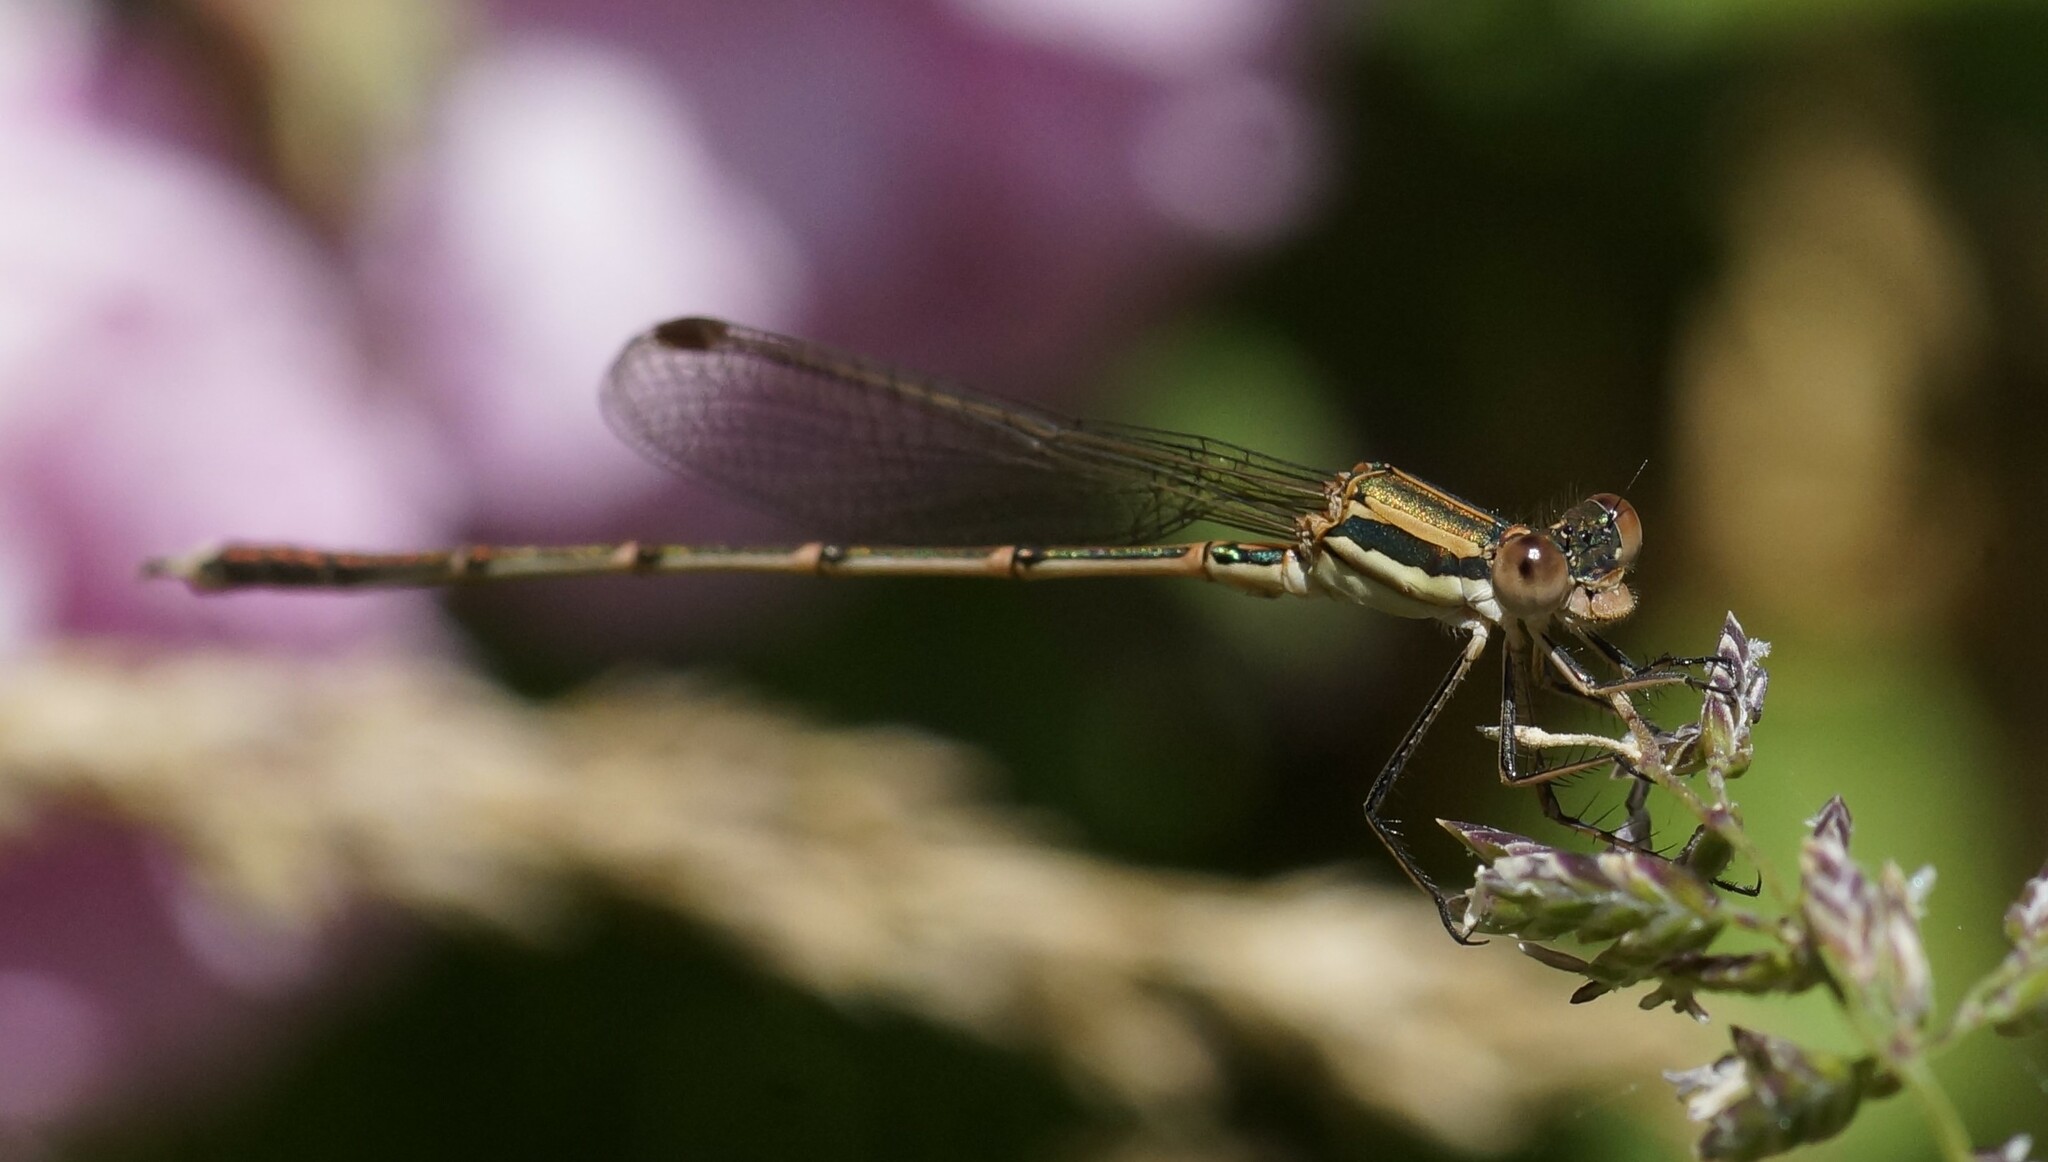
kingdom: Animalia
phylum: Arthropoda
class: Insecta
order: Odonata
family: Lestidae
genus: Austrolestes
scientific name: Austrolestes analis
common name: Slender ringtail
